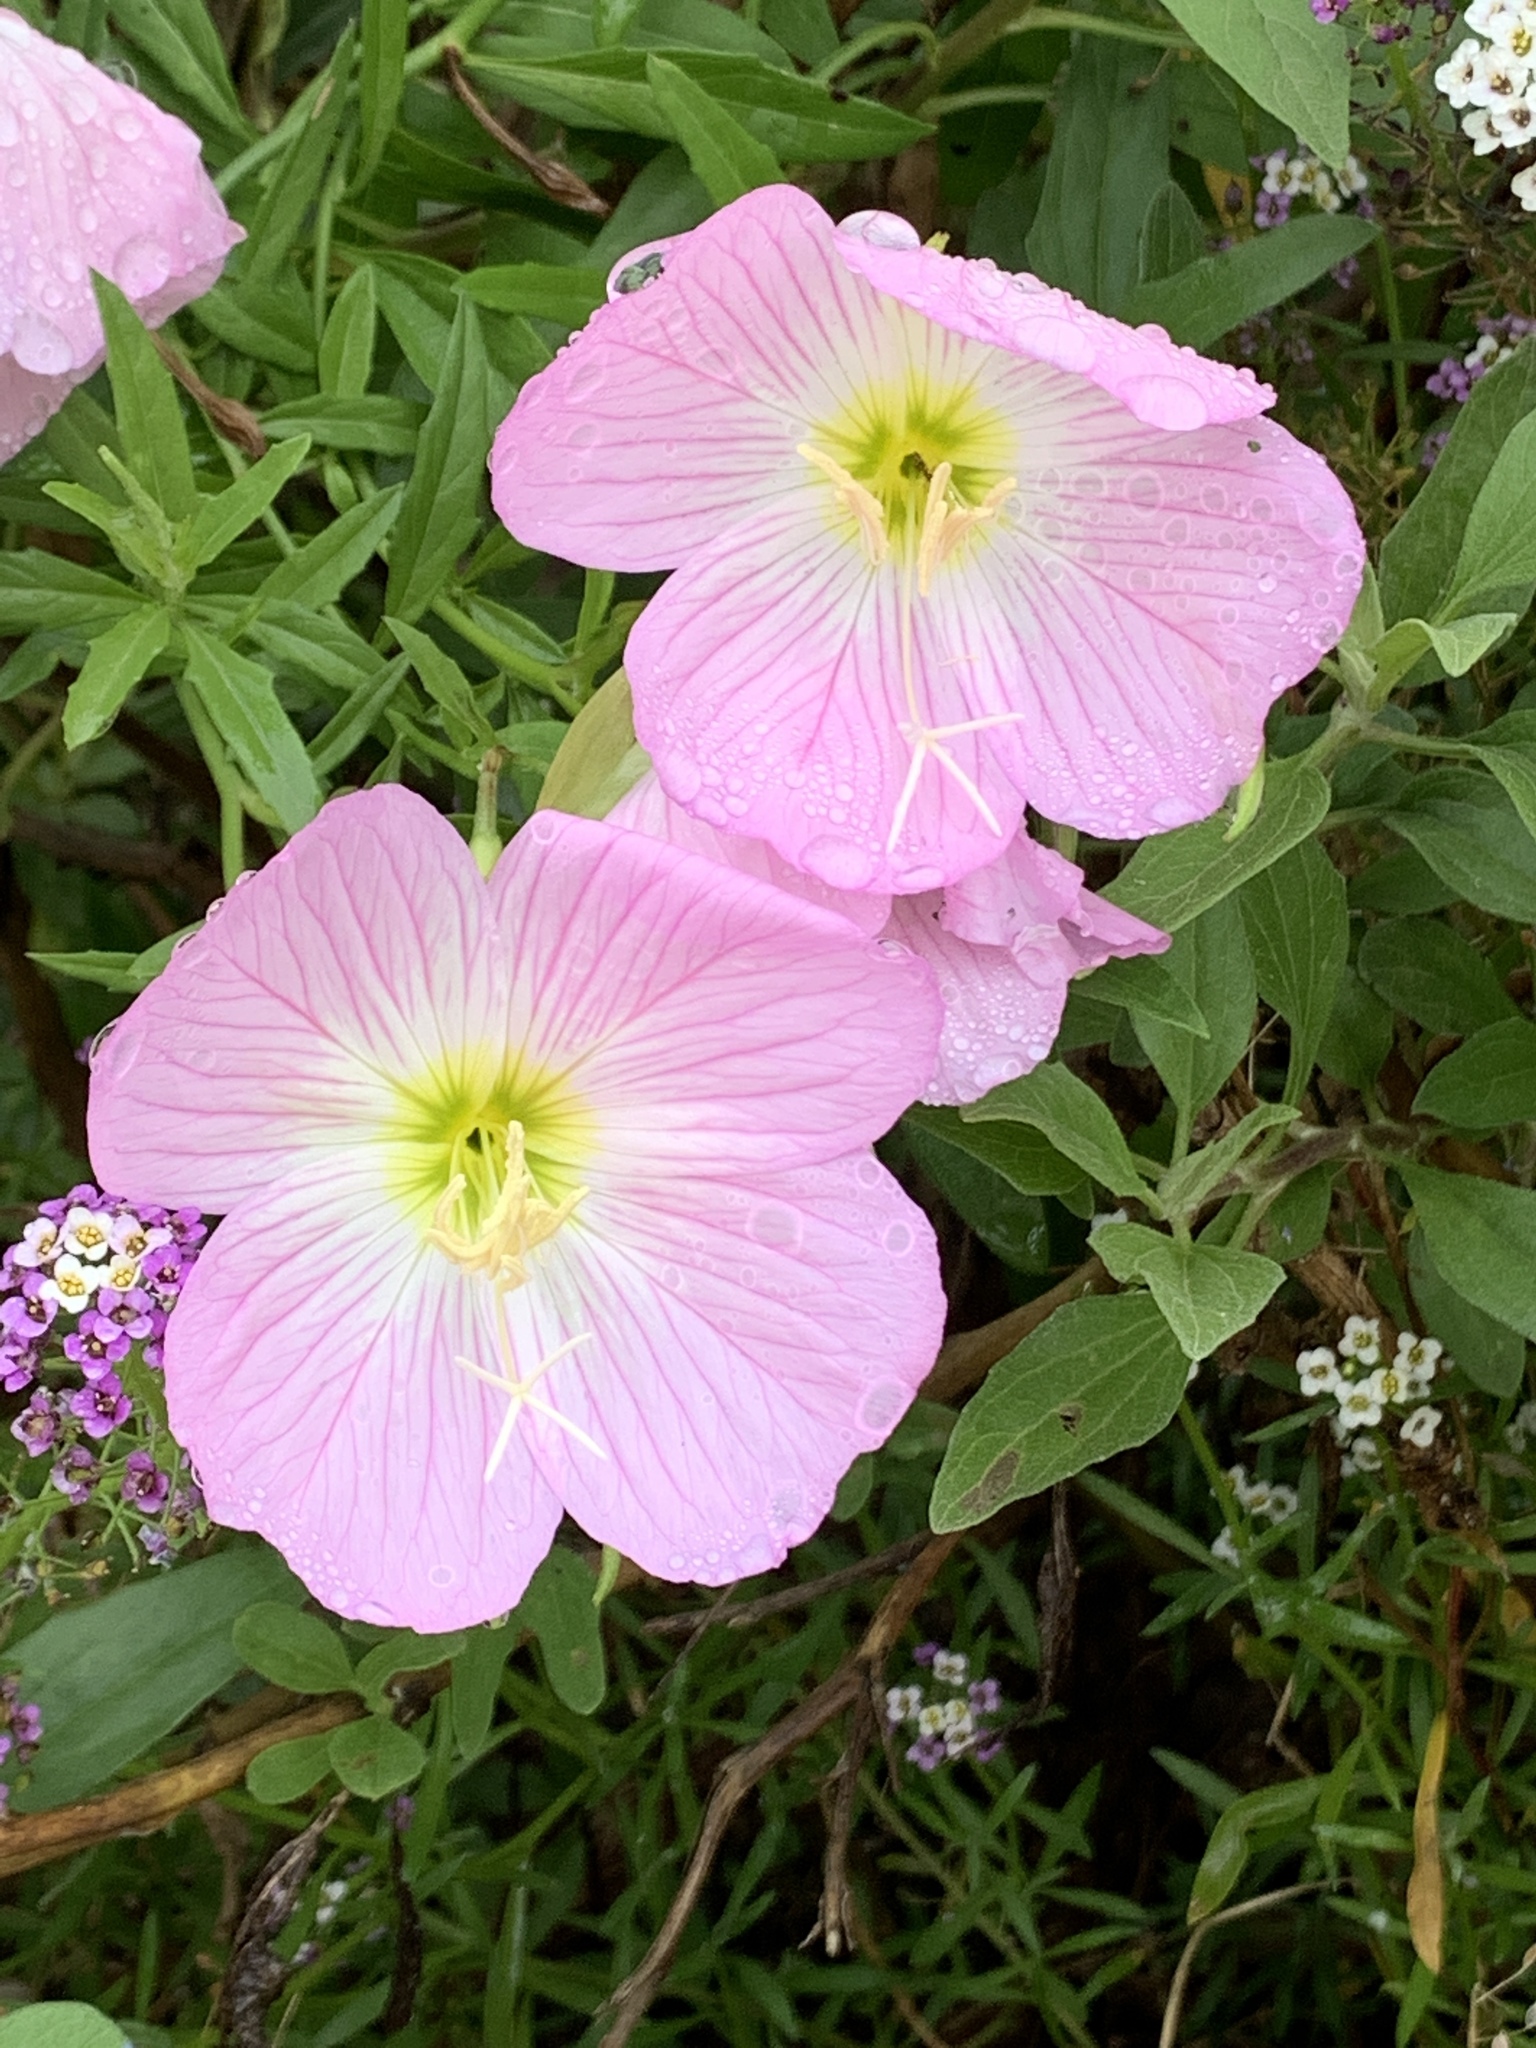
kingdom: Plantae
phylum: Tracheophyta
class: Magnoliopsida
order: Myrtales
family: Onagraceae
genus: Oenothera
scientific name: Oenothera speciosa
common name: White evening-primrose
